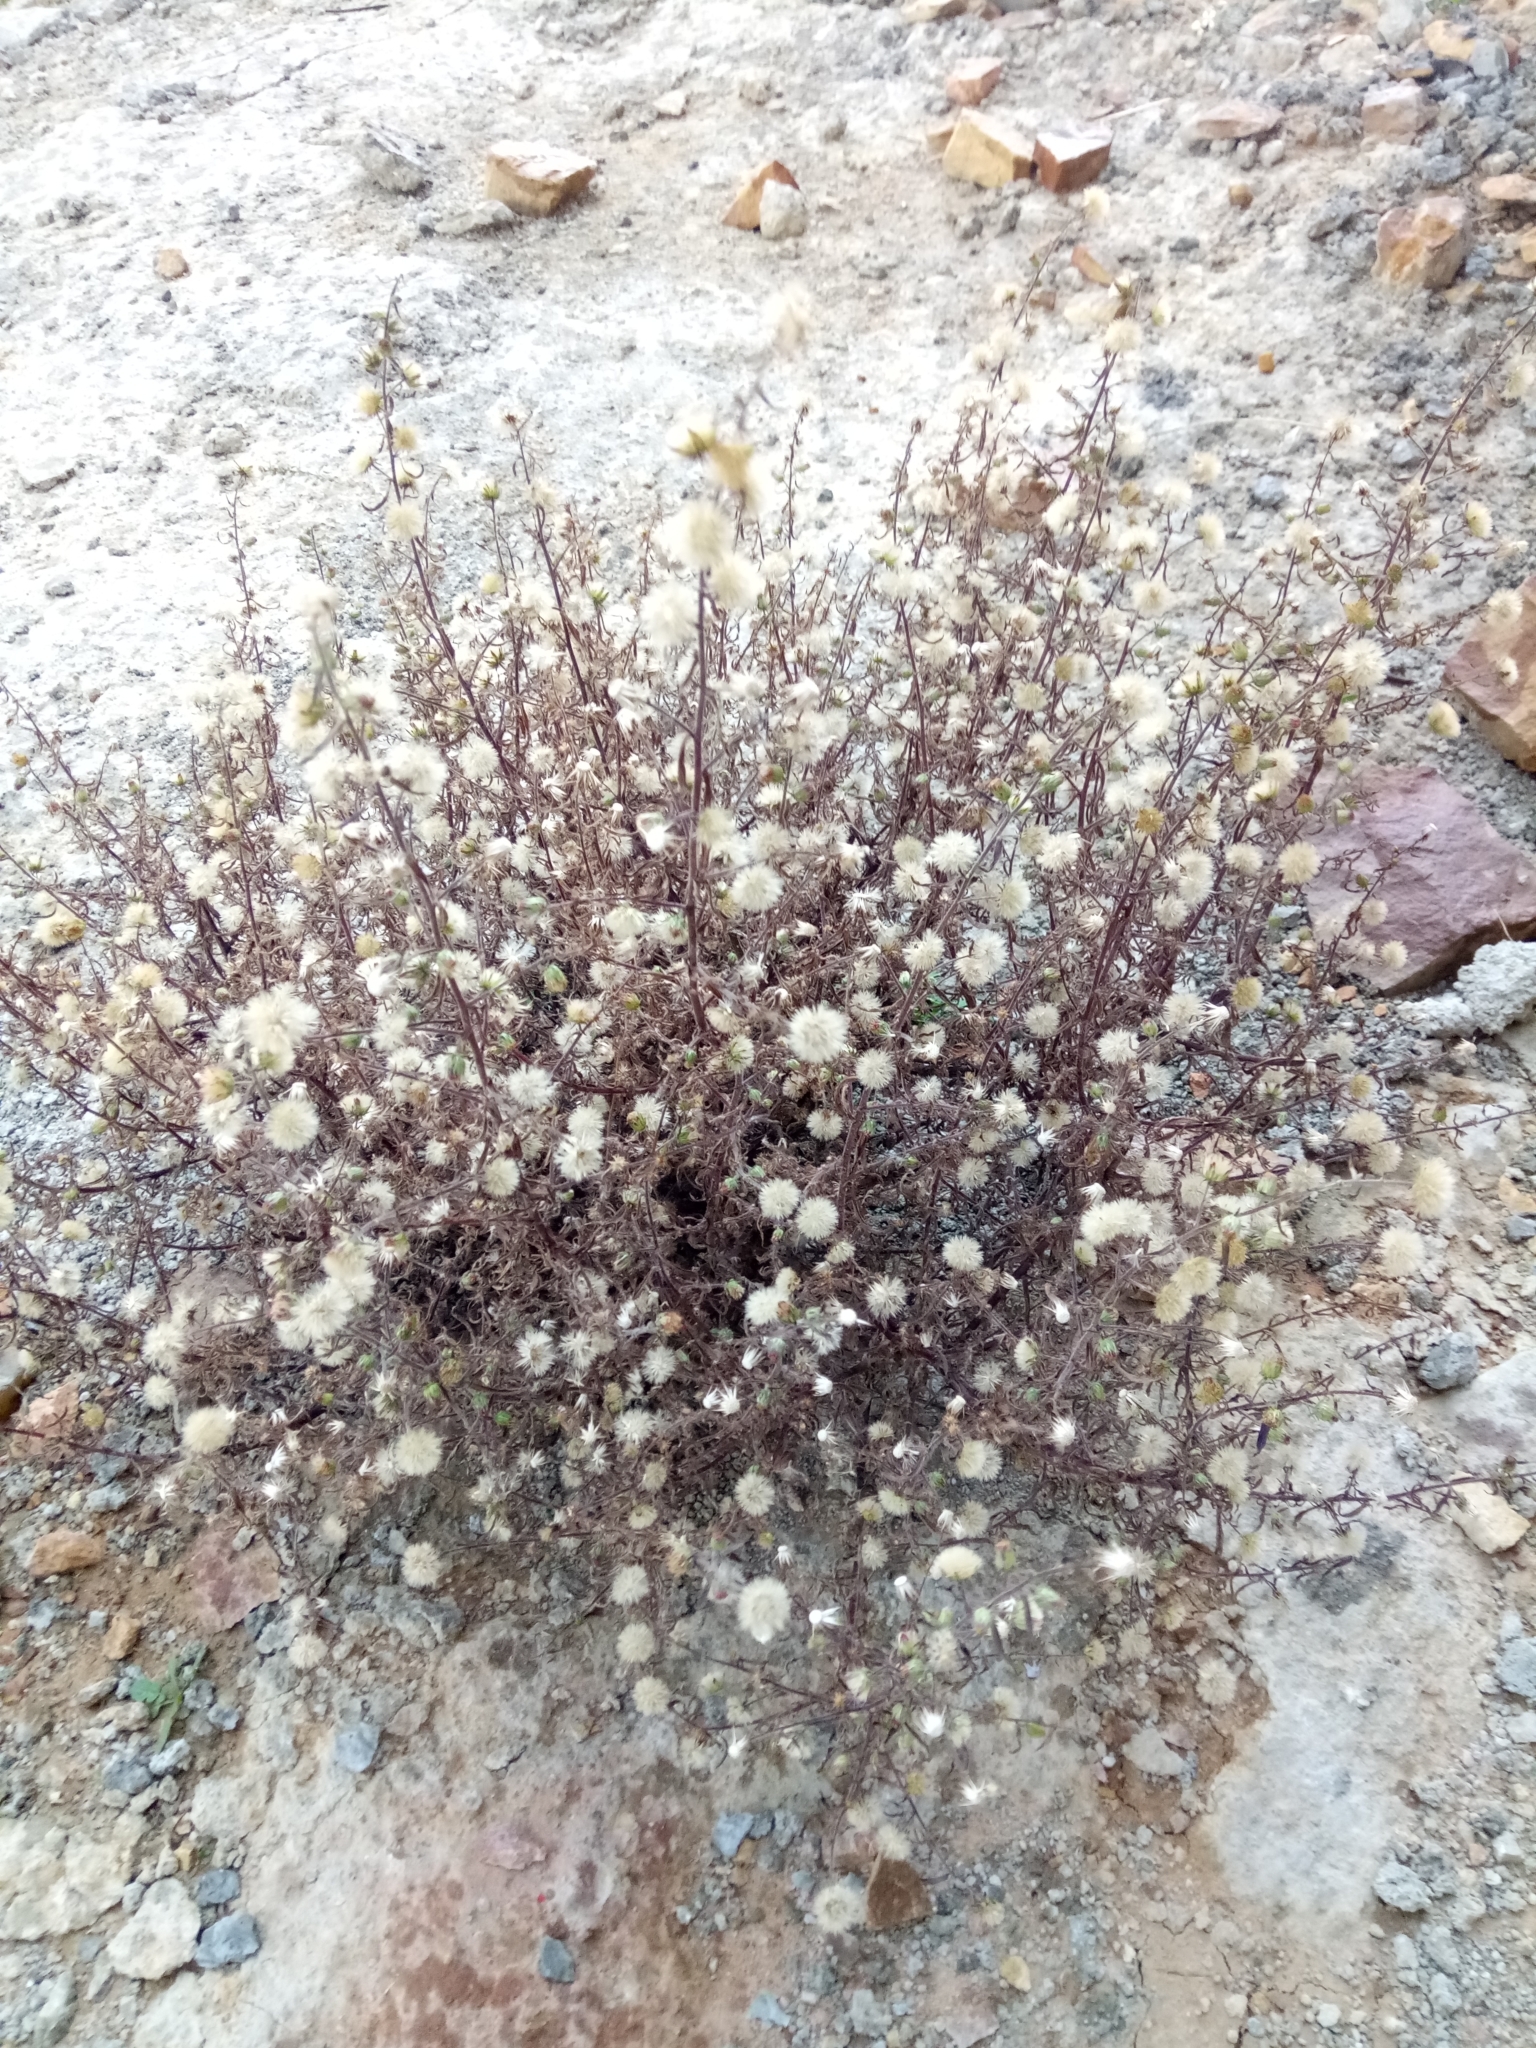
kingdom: Plantae
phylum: Tracheophyta
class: Magnoliopsida
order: Asterales
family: Asteraceae
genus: Dittrichia
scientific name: Dittrichia graveolens
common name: Stinking fleabane
